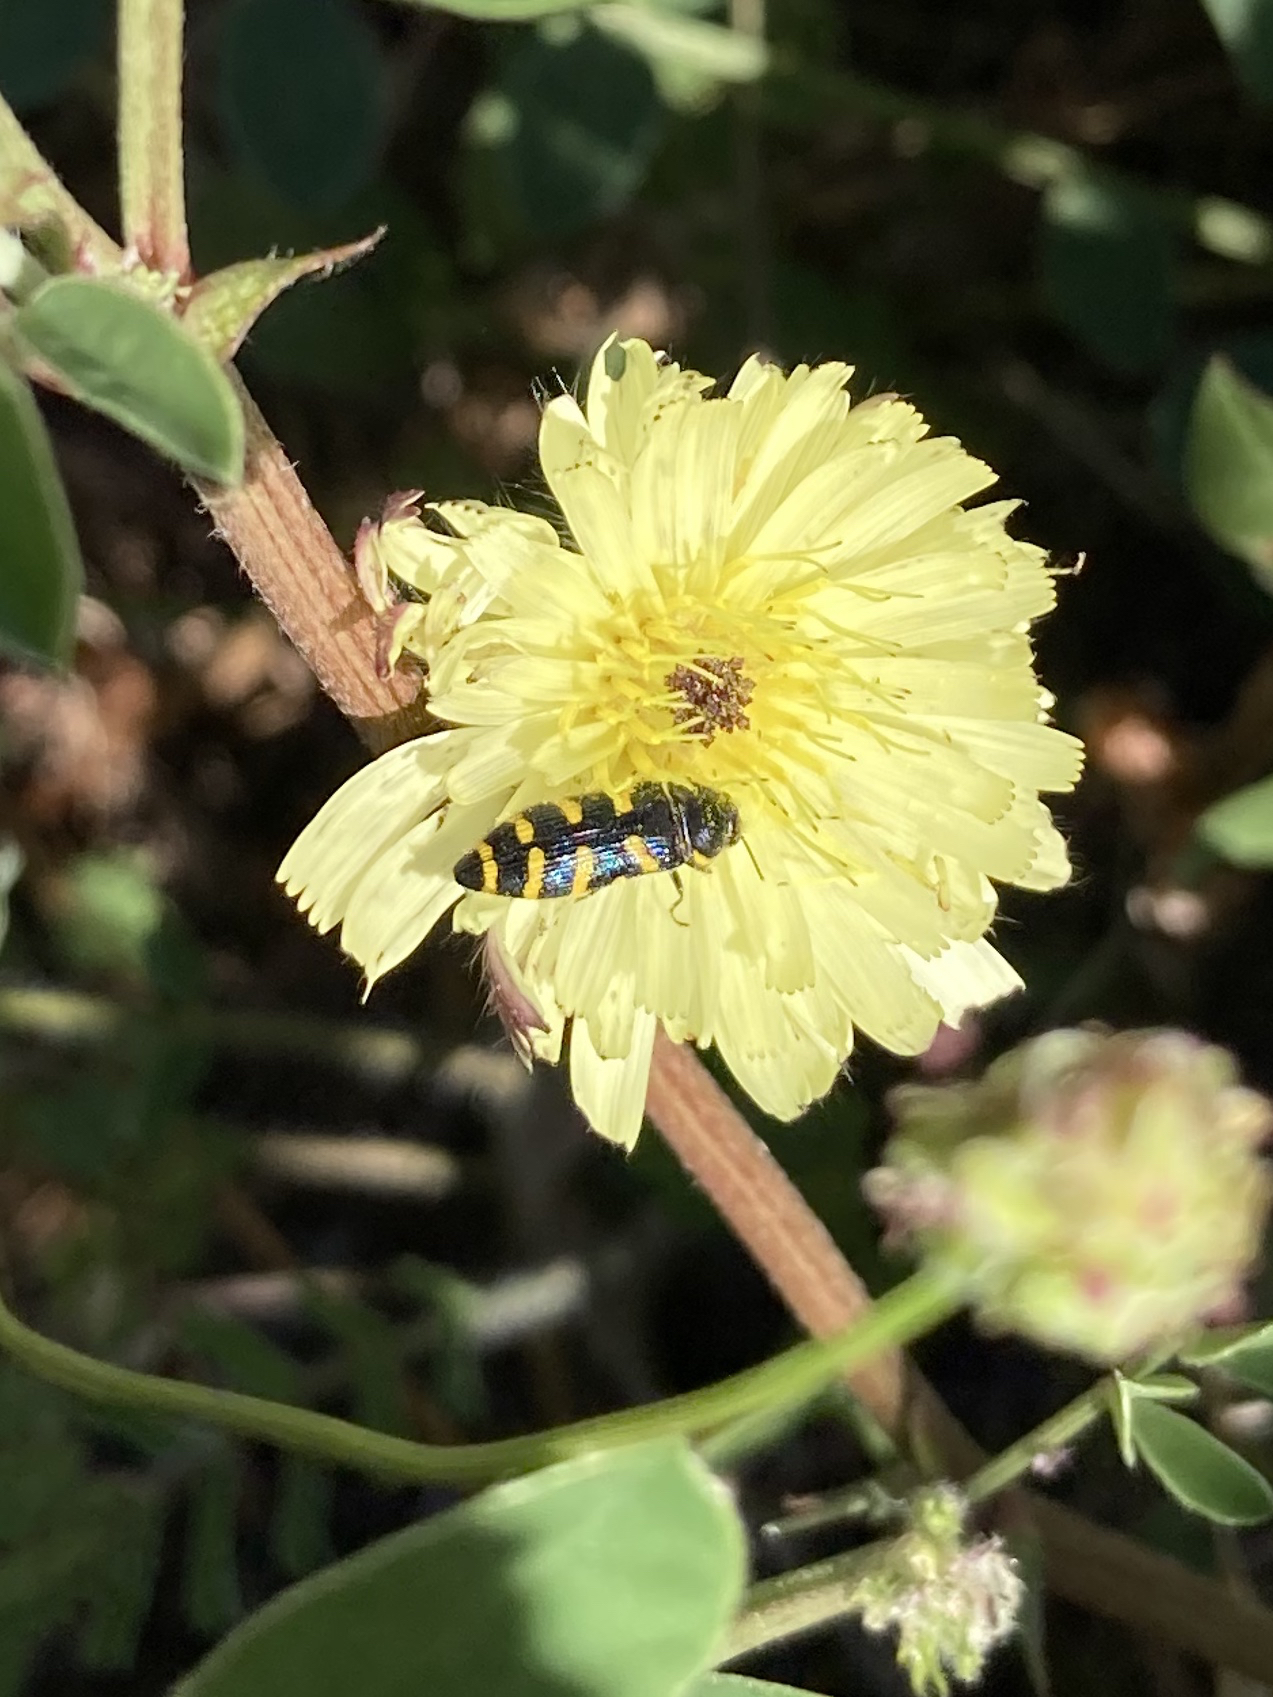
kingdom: Animalia
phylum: Arthropoda
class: Insecta
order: Coleoptera
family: Buprestidae
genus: Acmaeodera
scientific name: Acmaeodera quadrifasciata
